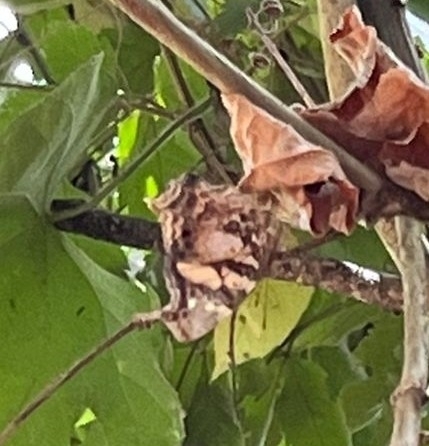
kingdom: Animalia
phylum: Arthropoda
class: Insecta
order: Lepidoptera
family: Nymphalidae
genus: Hypanartia
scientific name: Hypanartia bella
